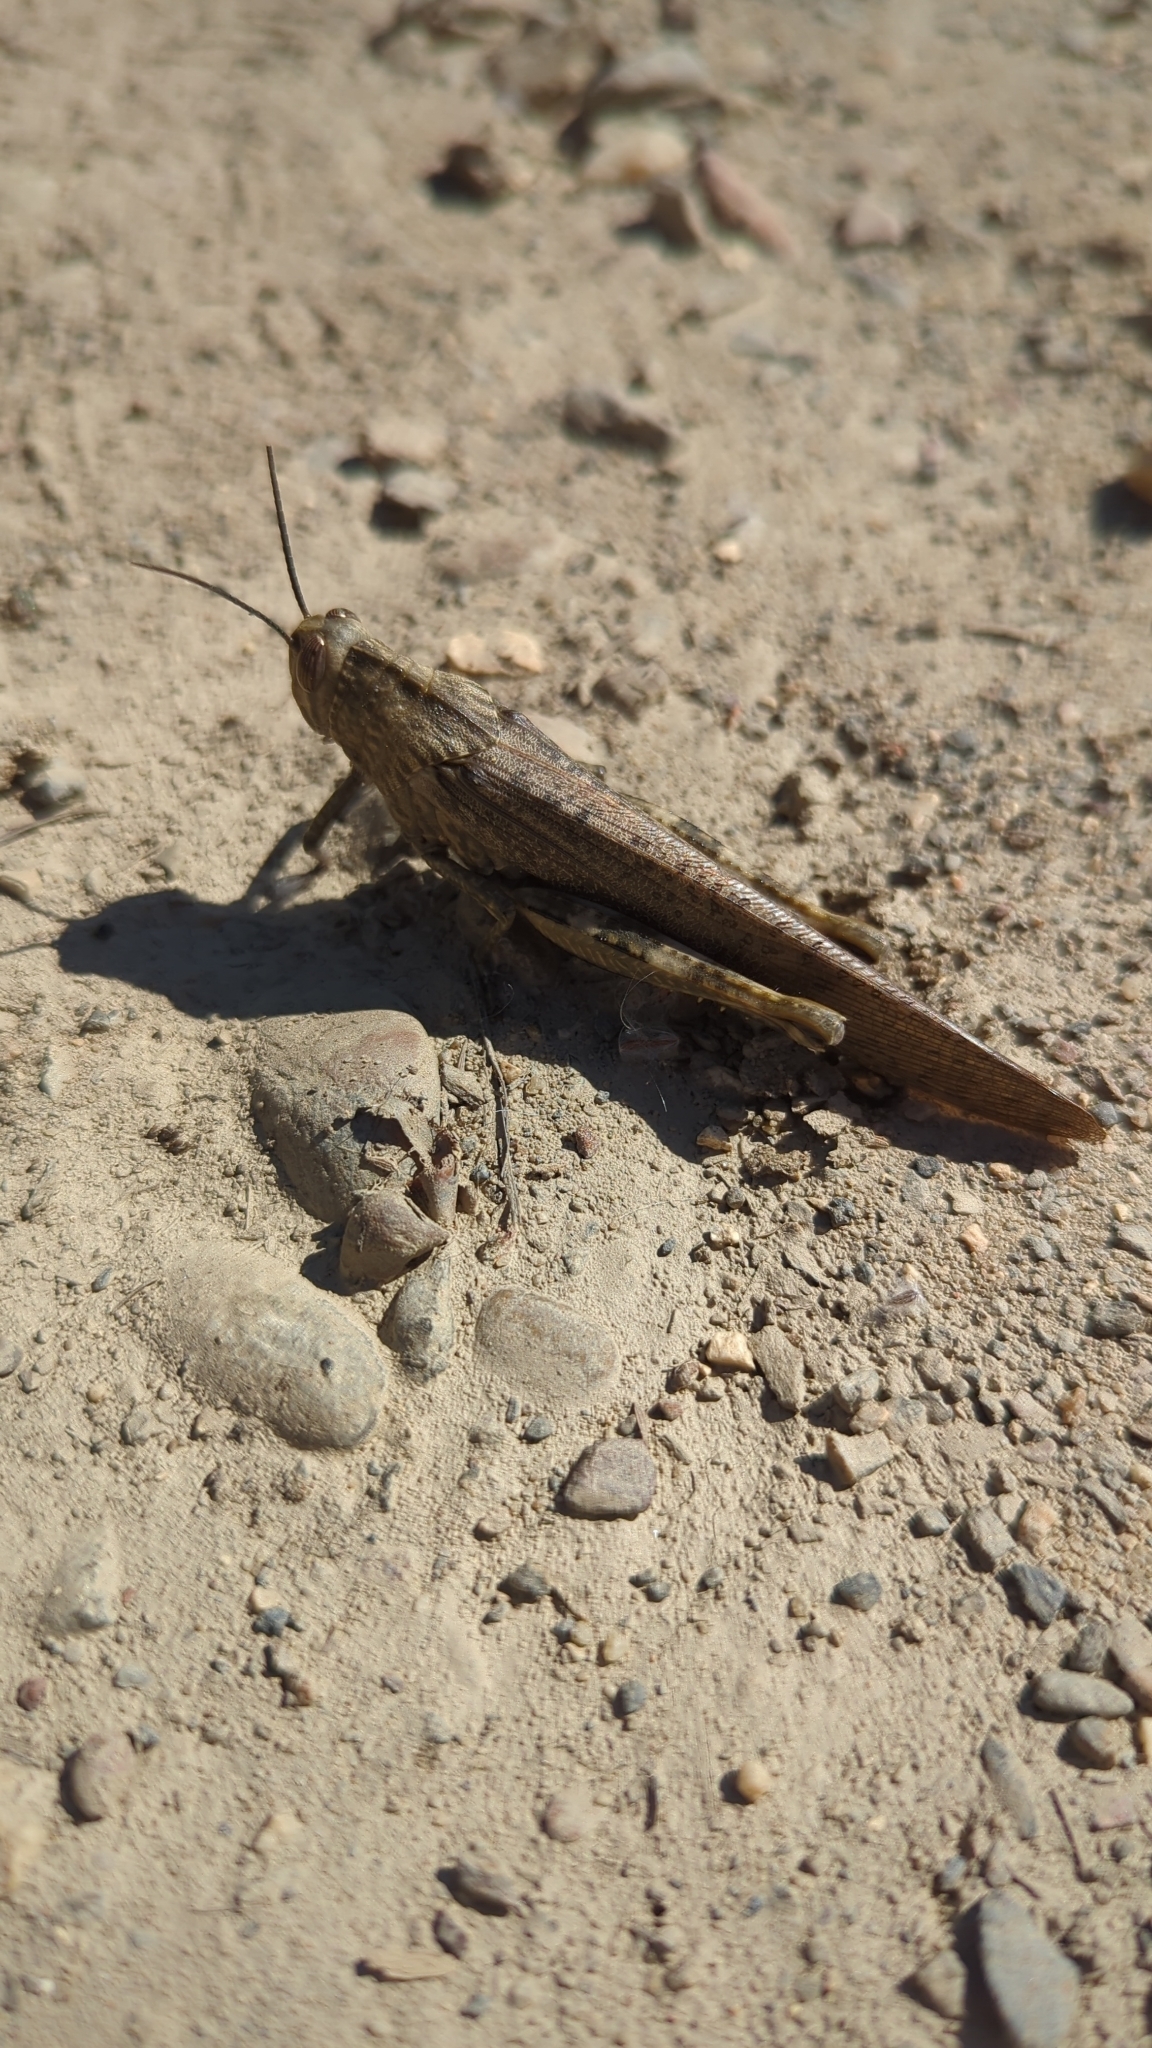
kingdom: Animalia
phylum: Arthropoda
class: Insecta
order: Orthoptera
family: Acrididae
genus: Anacridium
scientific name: Anacridium aegyptium
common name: Egyptian grasshopper
